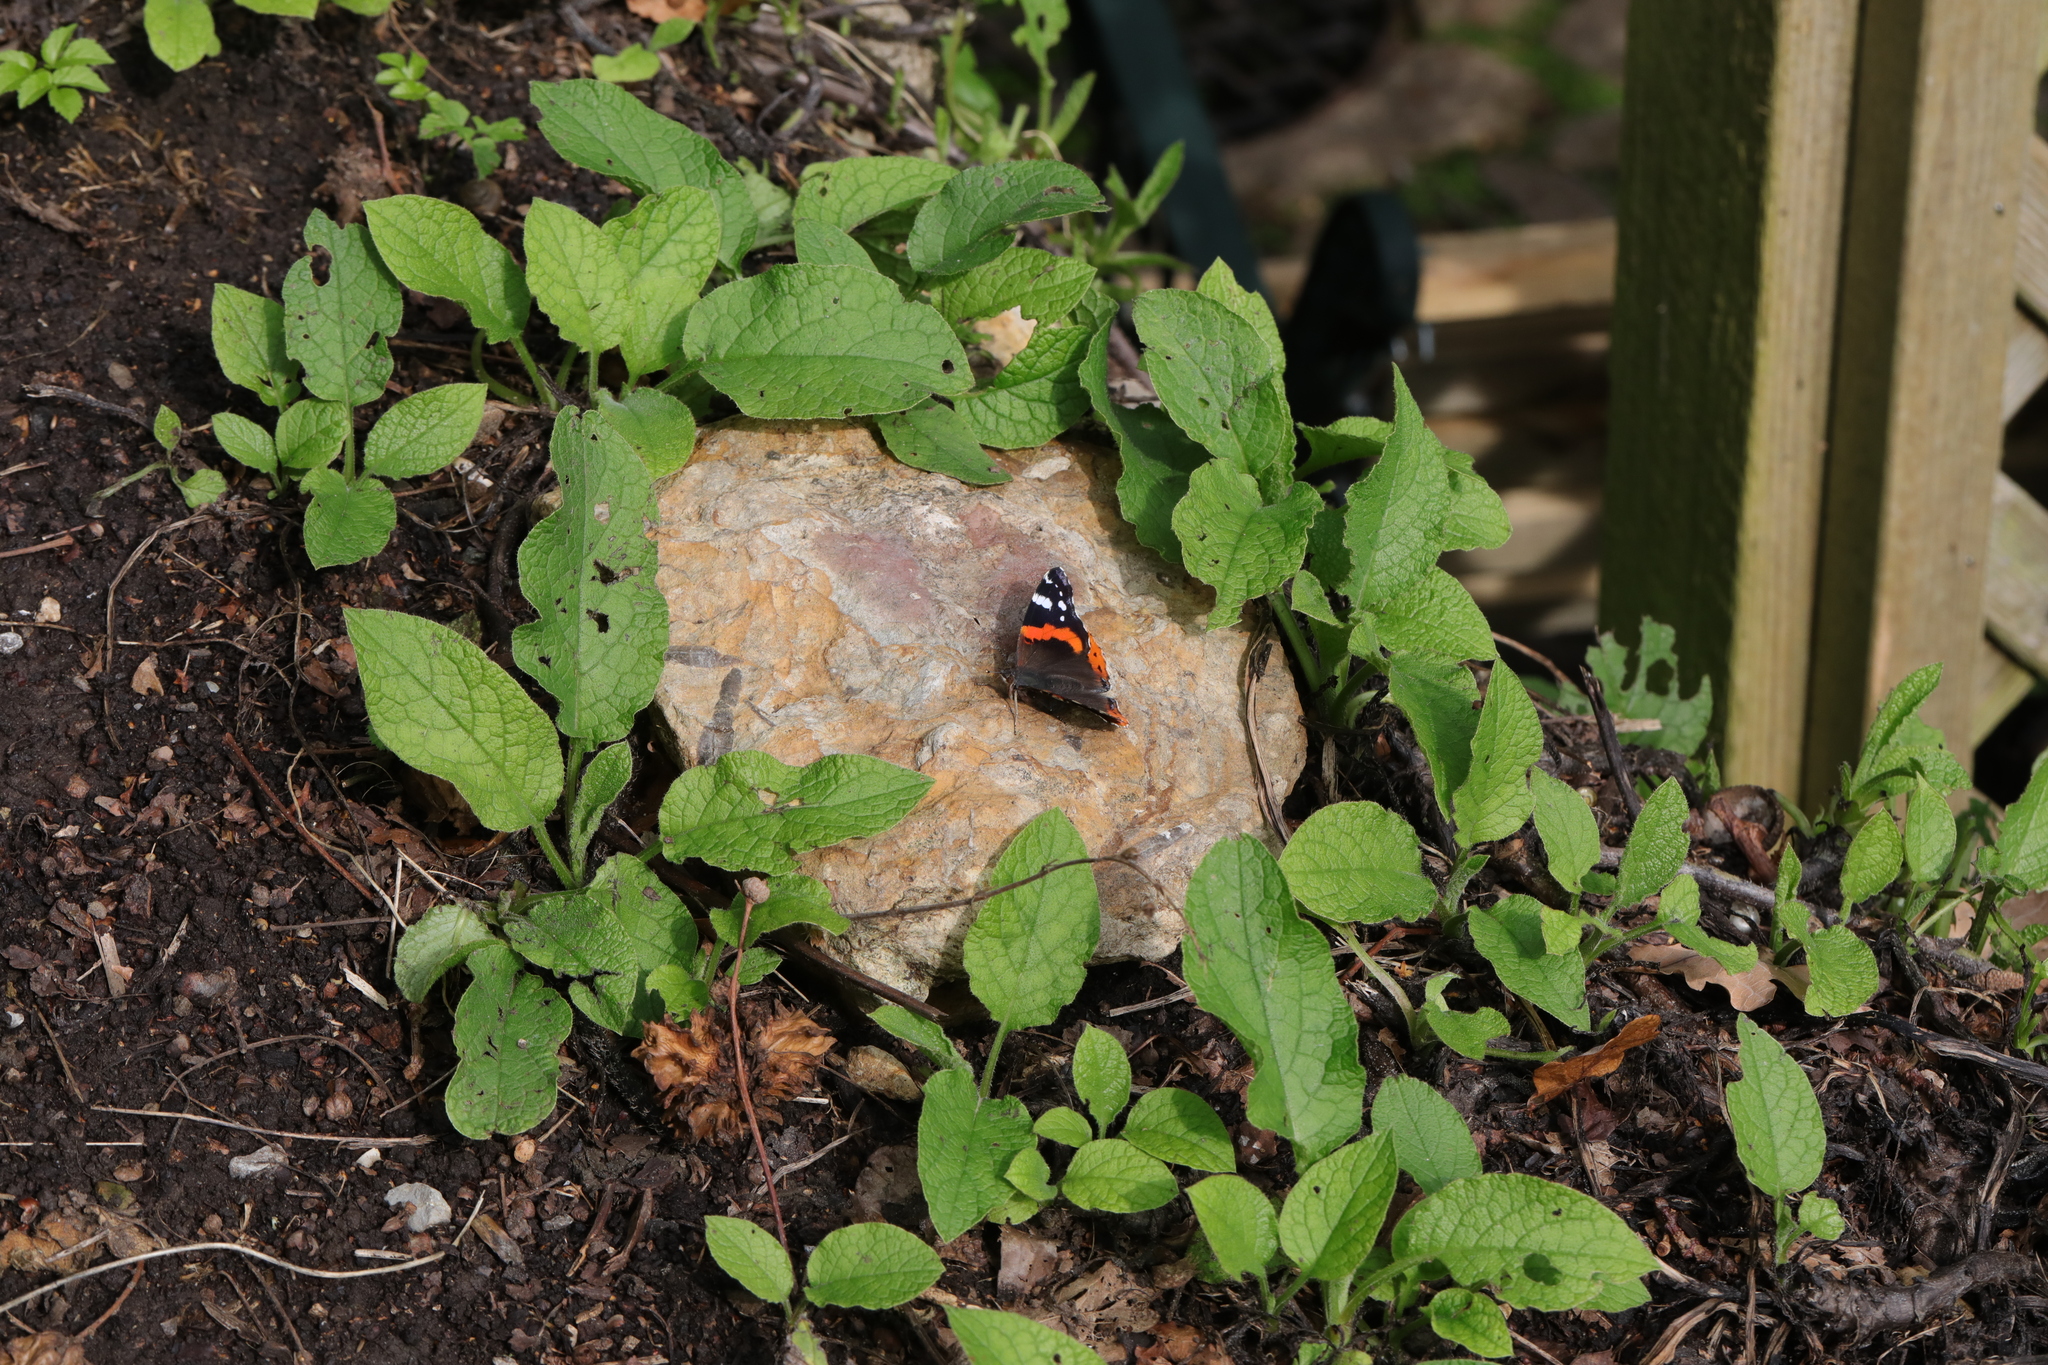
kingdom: Animalia
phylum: Arthropoda
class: Insecta
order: Lepidoptera
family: Nymphalidae
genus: Vanessa
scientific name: Vanessa atalanta
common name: Red admiral
